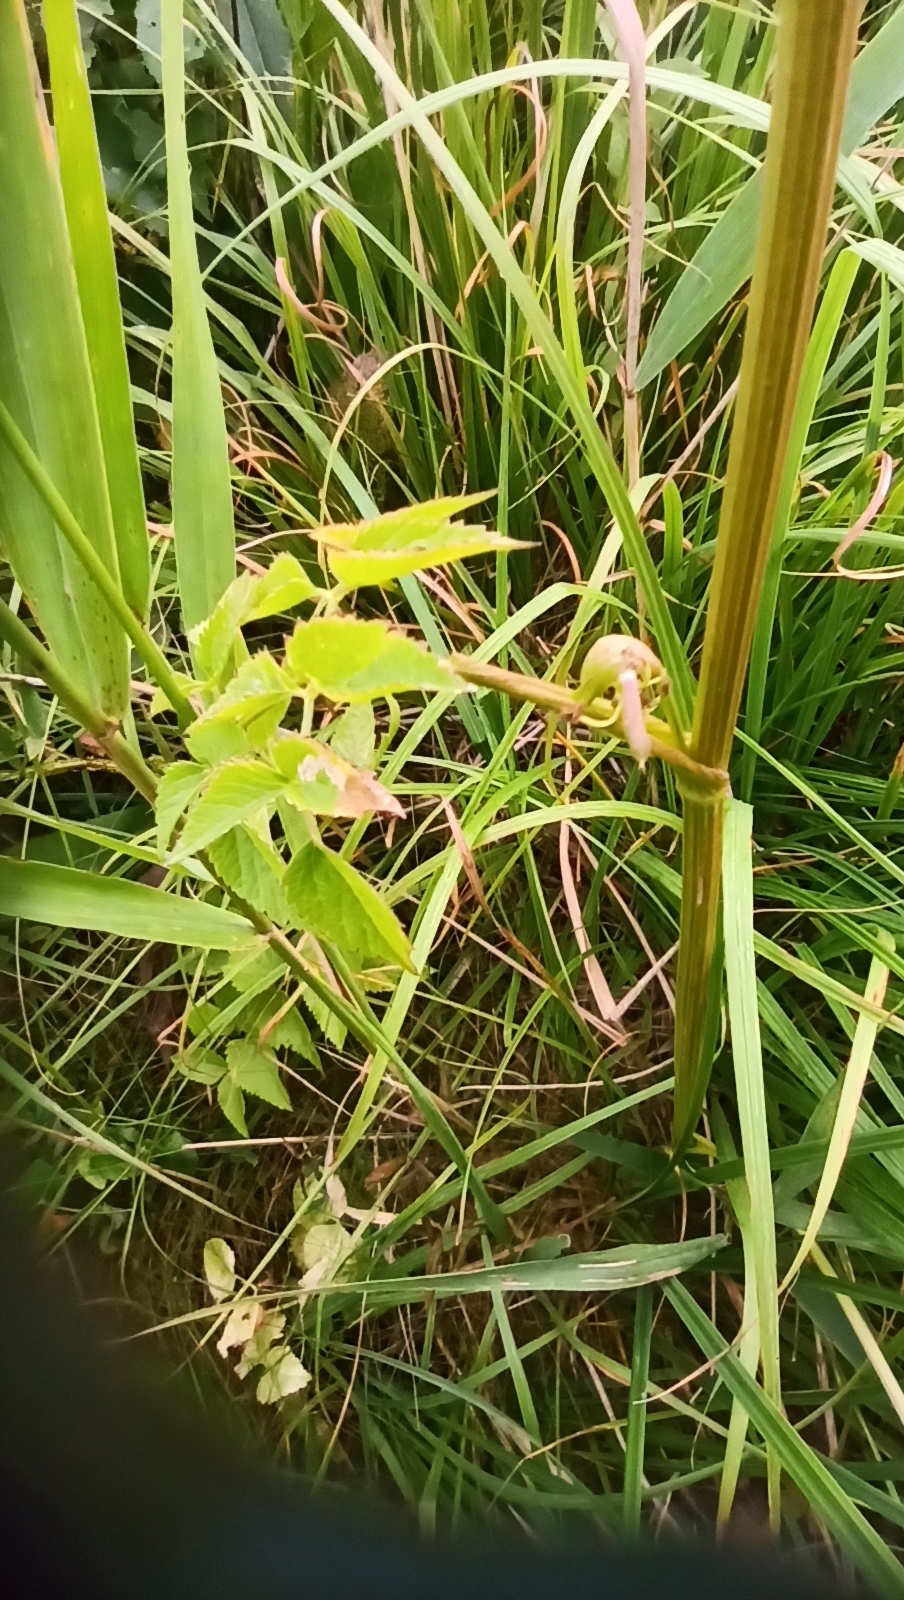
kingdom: Plantae
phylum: Tracheophyta
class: Magnoliopsida
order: Apiales
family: Apiaceae
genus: Angelica
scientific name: Angelica sylvestris
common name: Wild angelica
